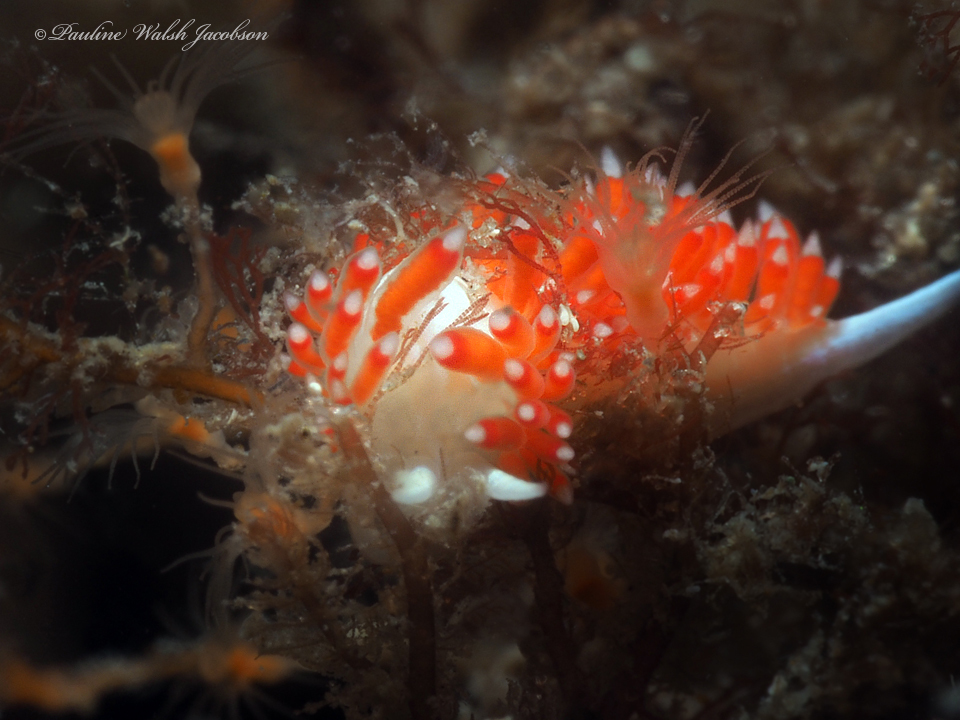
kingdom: Animalia
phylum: Mollusca
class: Gastropoda
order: Nudibranchia
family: Flabellinidae
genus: Flabellina
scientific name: Flabellina dushia
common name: Dushia flabellina
